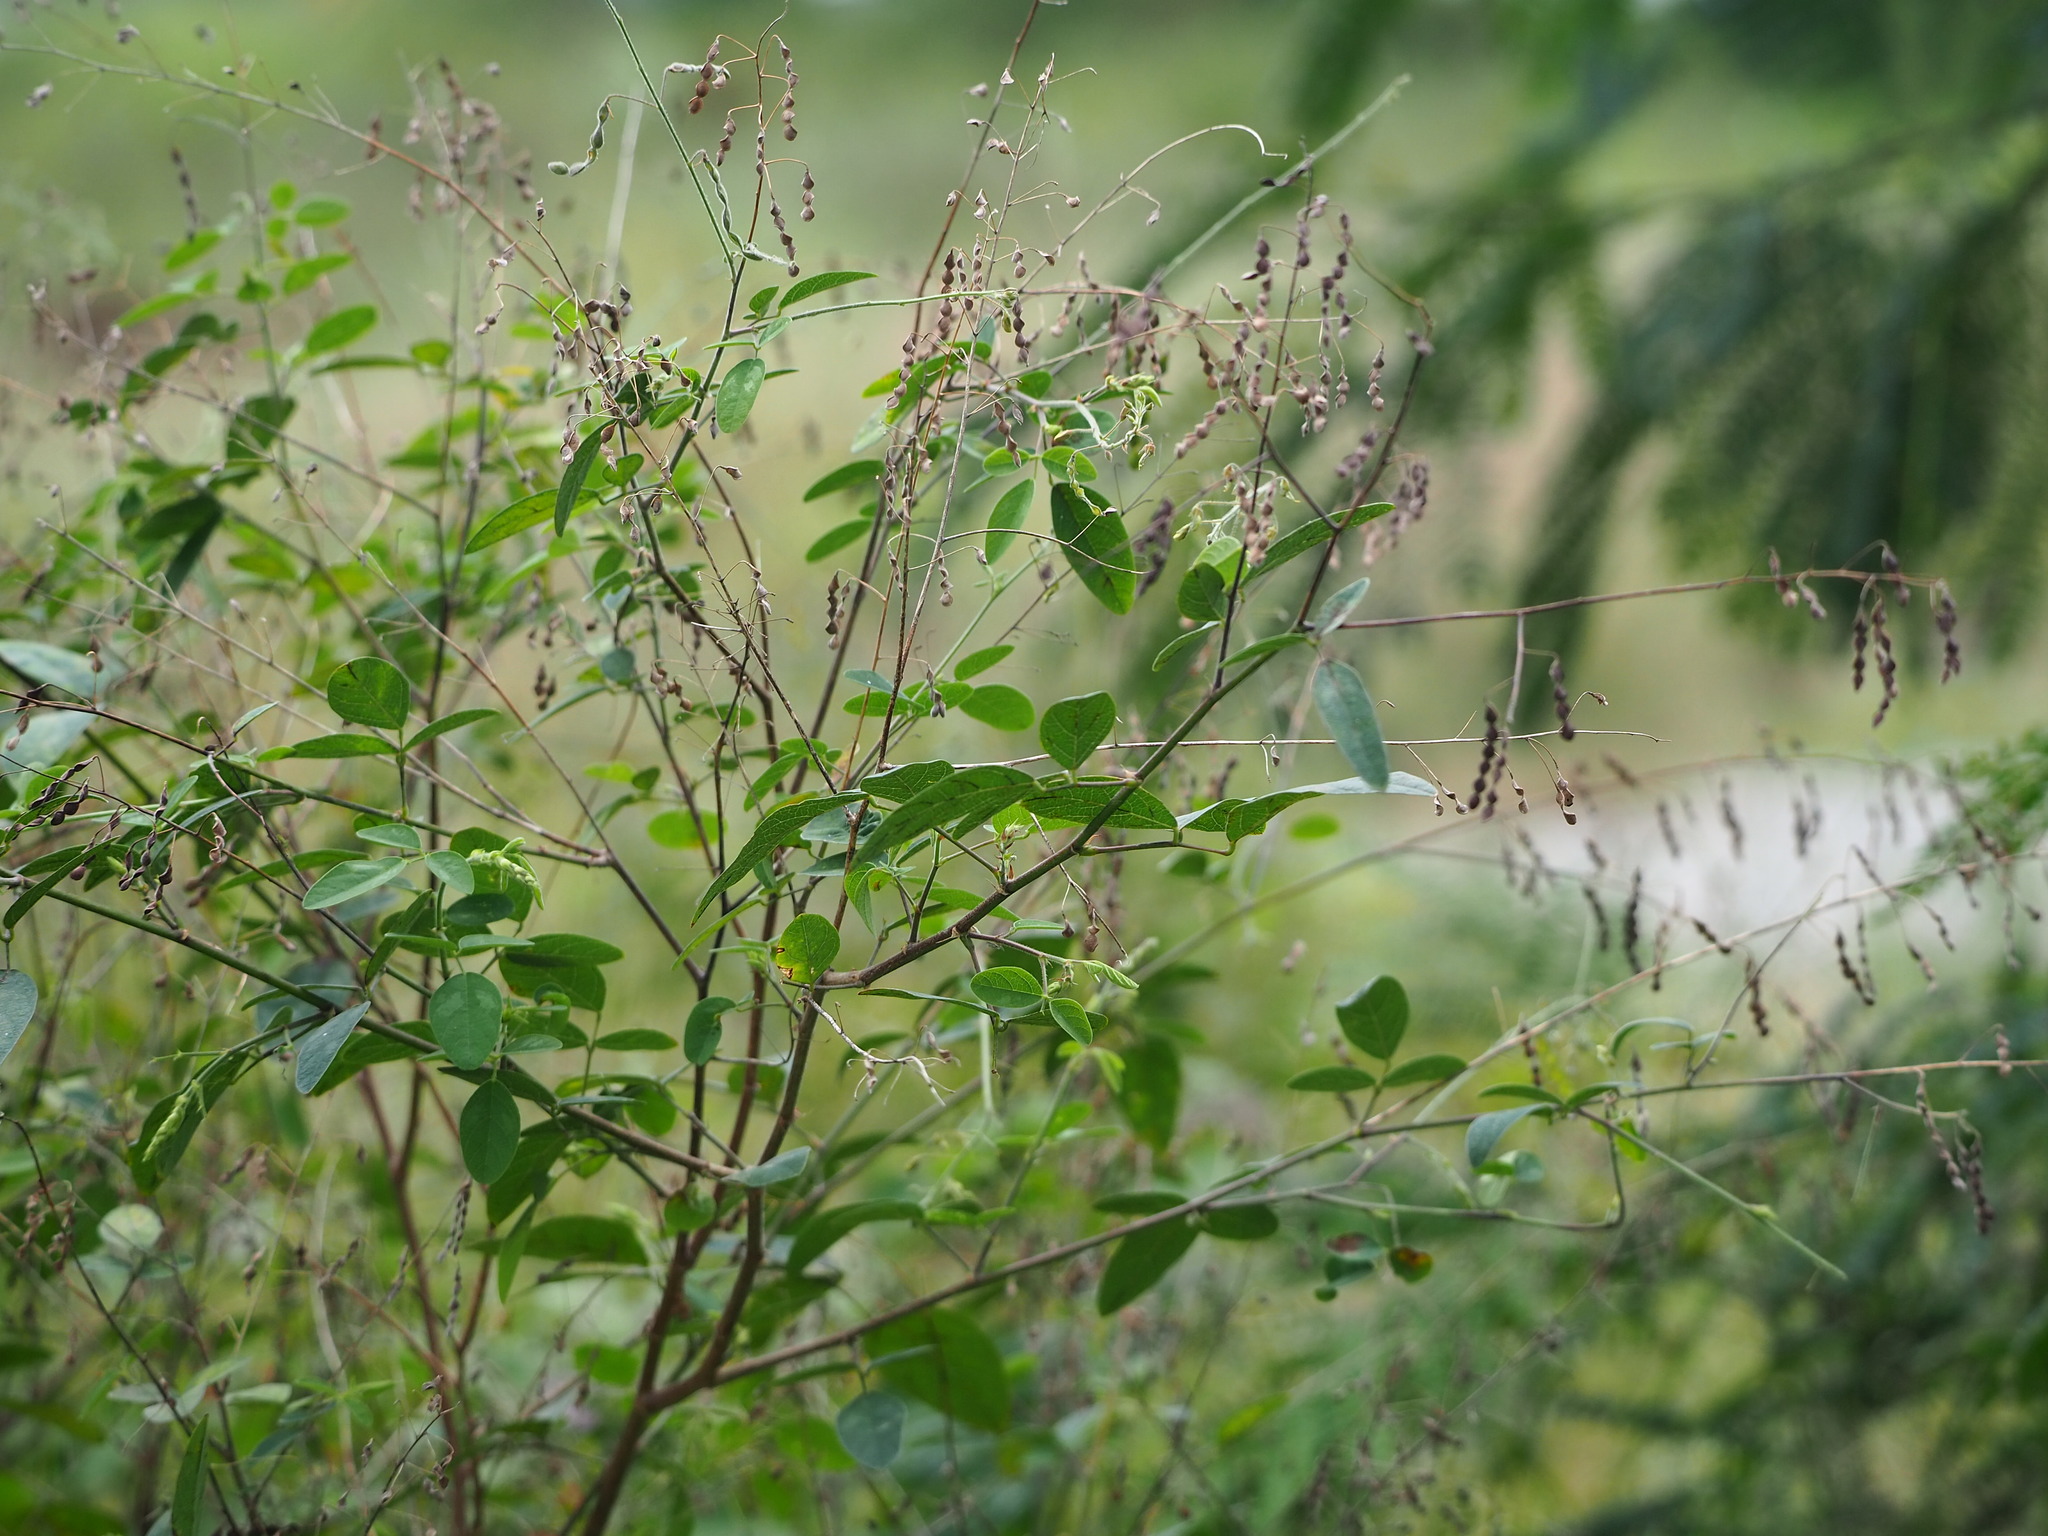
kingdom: Plantae
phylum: Tracheophyta
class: Magnoliopsida
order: Fabales
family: Fabaceae
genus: Desmodium
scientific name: Desmodium tortuosum
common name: Dixie ticktrefoil
